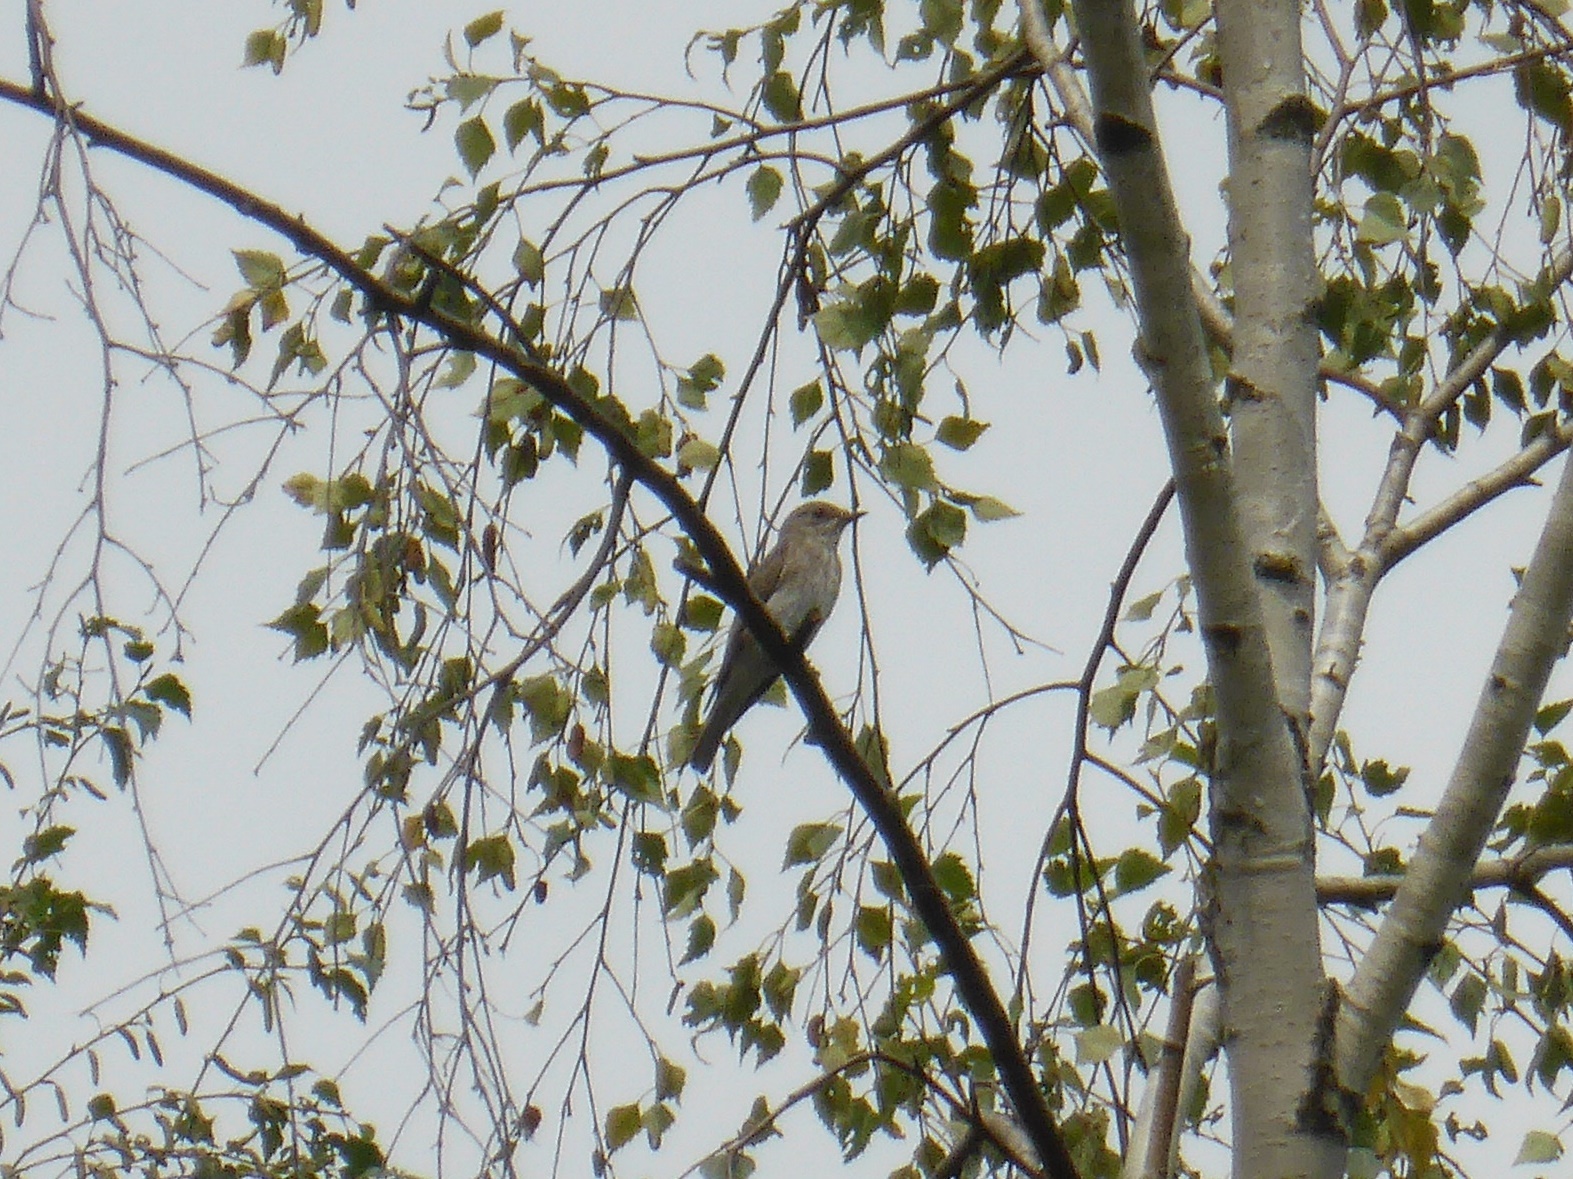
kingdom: Animalia
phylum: Chordata
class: Aves
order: Passeriformes
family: Muscicapidae
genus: Muscicapa
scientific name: Muscicapa striata
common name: Spotted flycatcher
